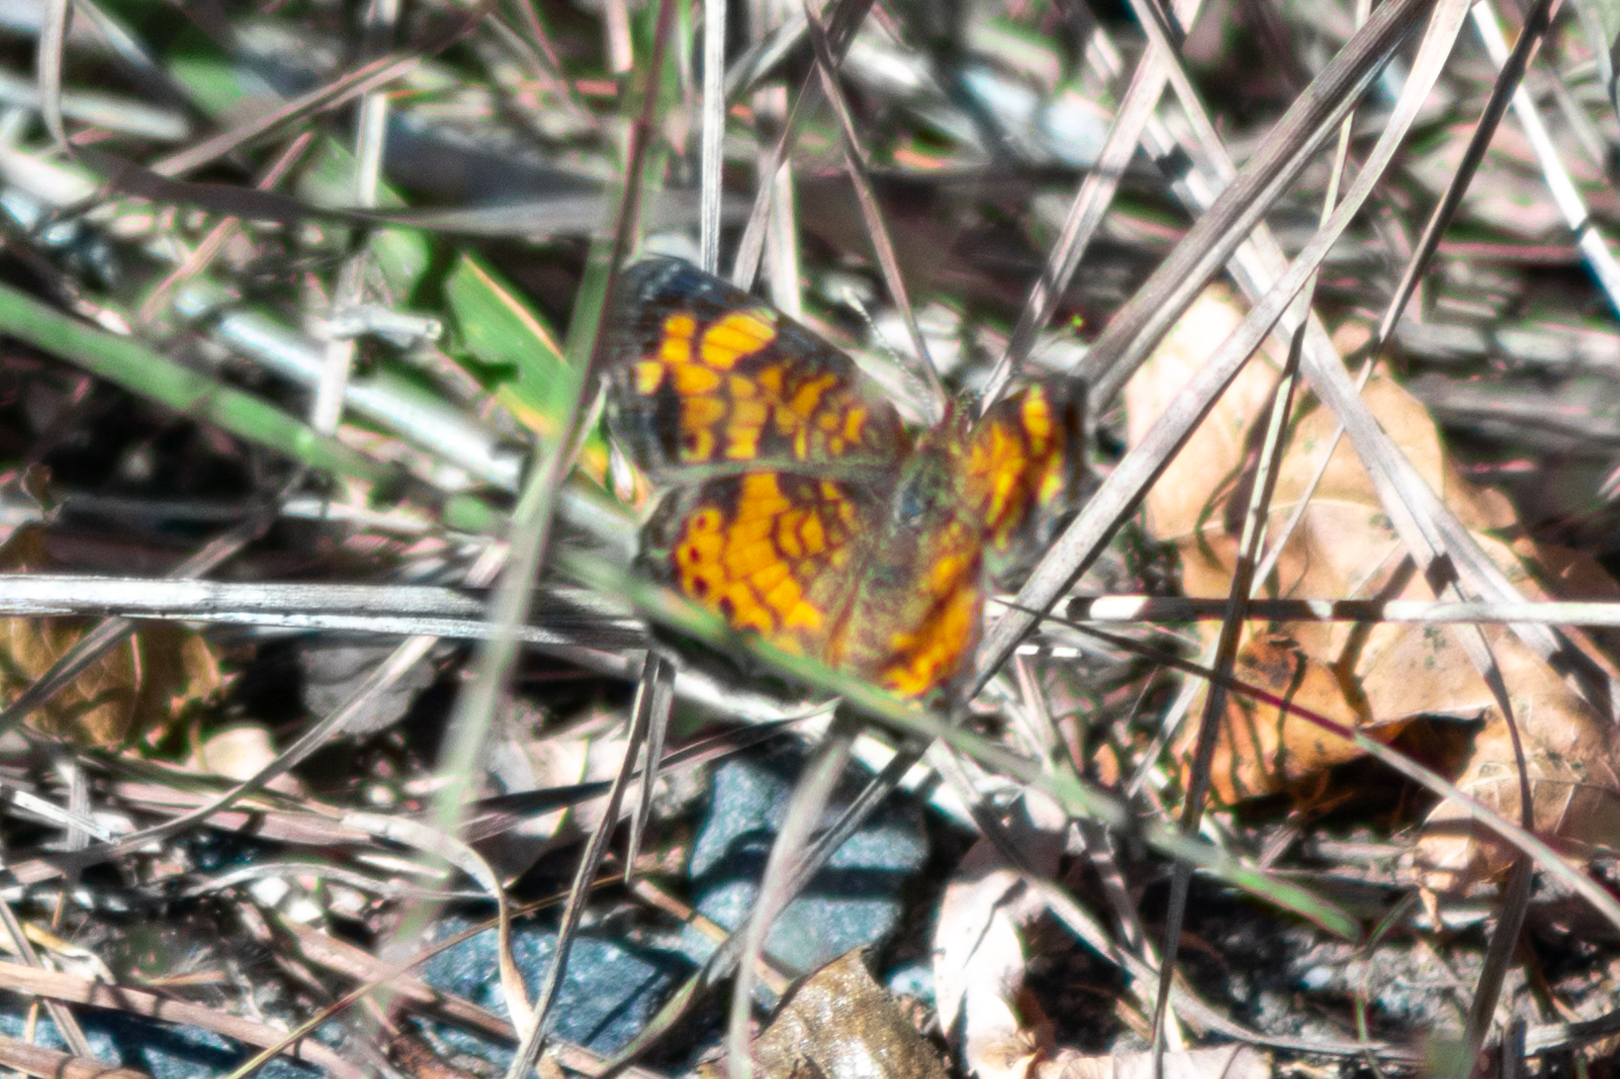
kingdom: Animalia
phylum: Arthropoda
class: Insecta
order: Lepidoptera
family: Nymphalidae
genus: Phyciodes
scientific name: Phyciodes tharos
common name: Pearl crescent
